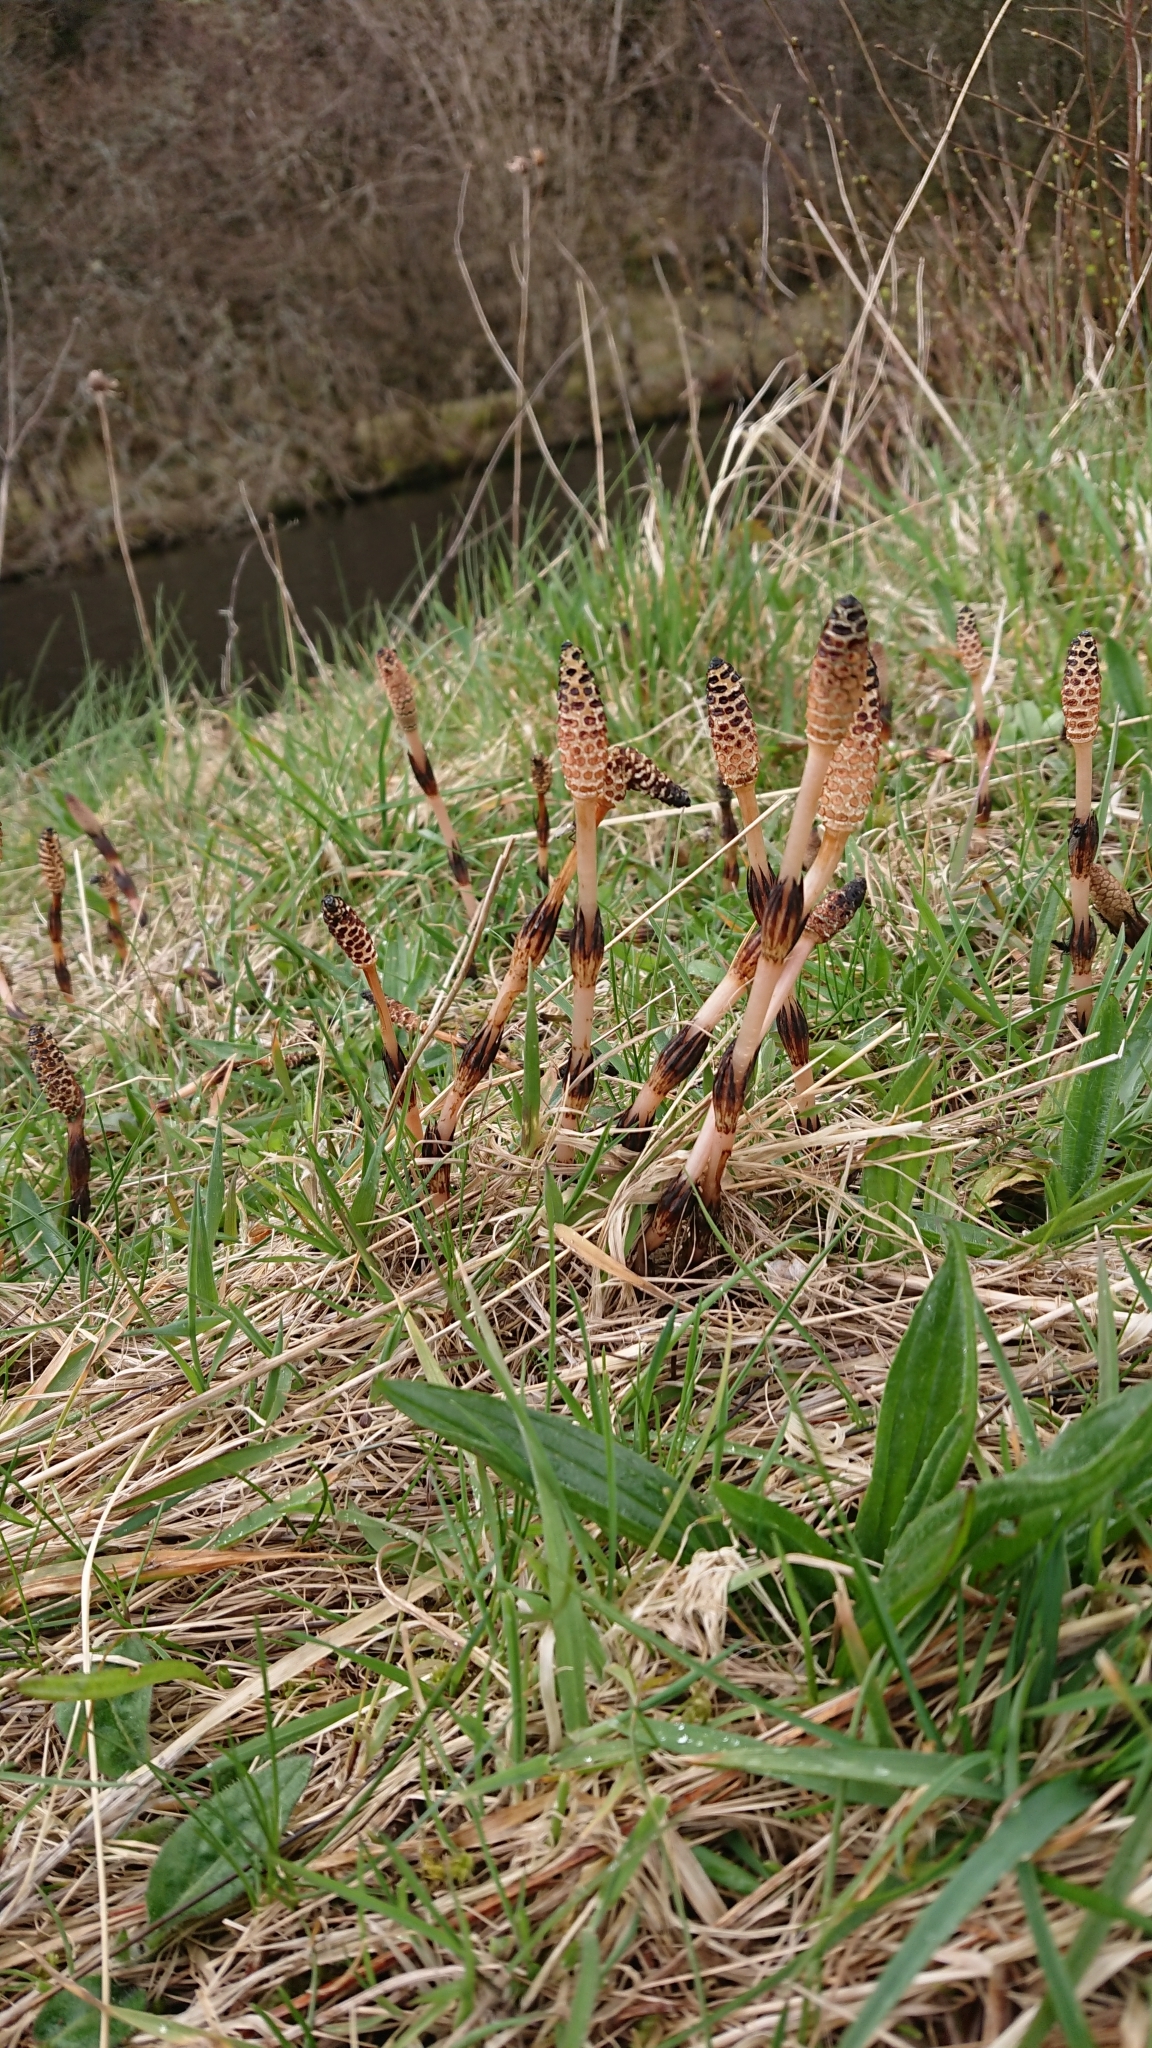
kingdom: Plantae
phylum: Tracheophyta
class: Polypodiopsida
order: Equisetales
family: Equisetaceae
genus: Equisetum
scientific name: Equisetum arvense
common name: Field horsetail
